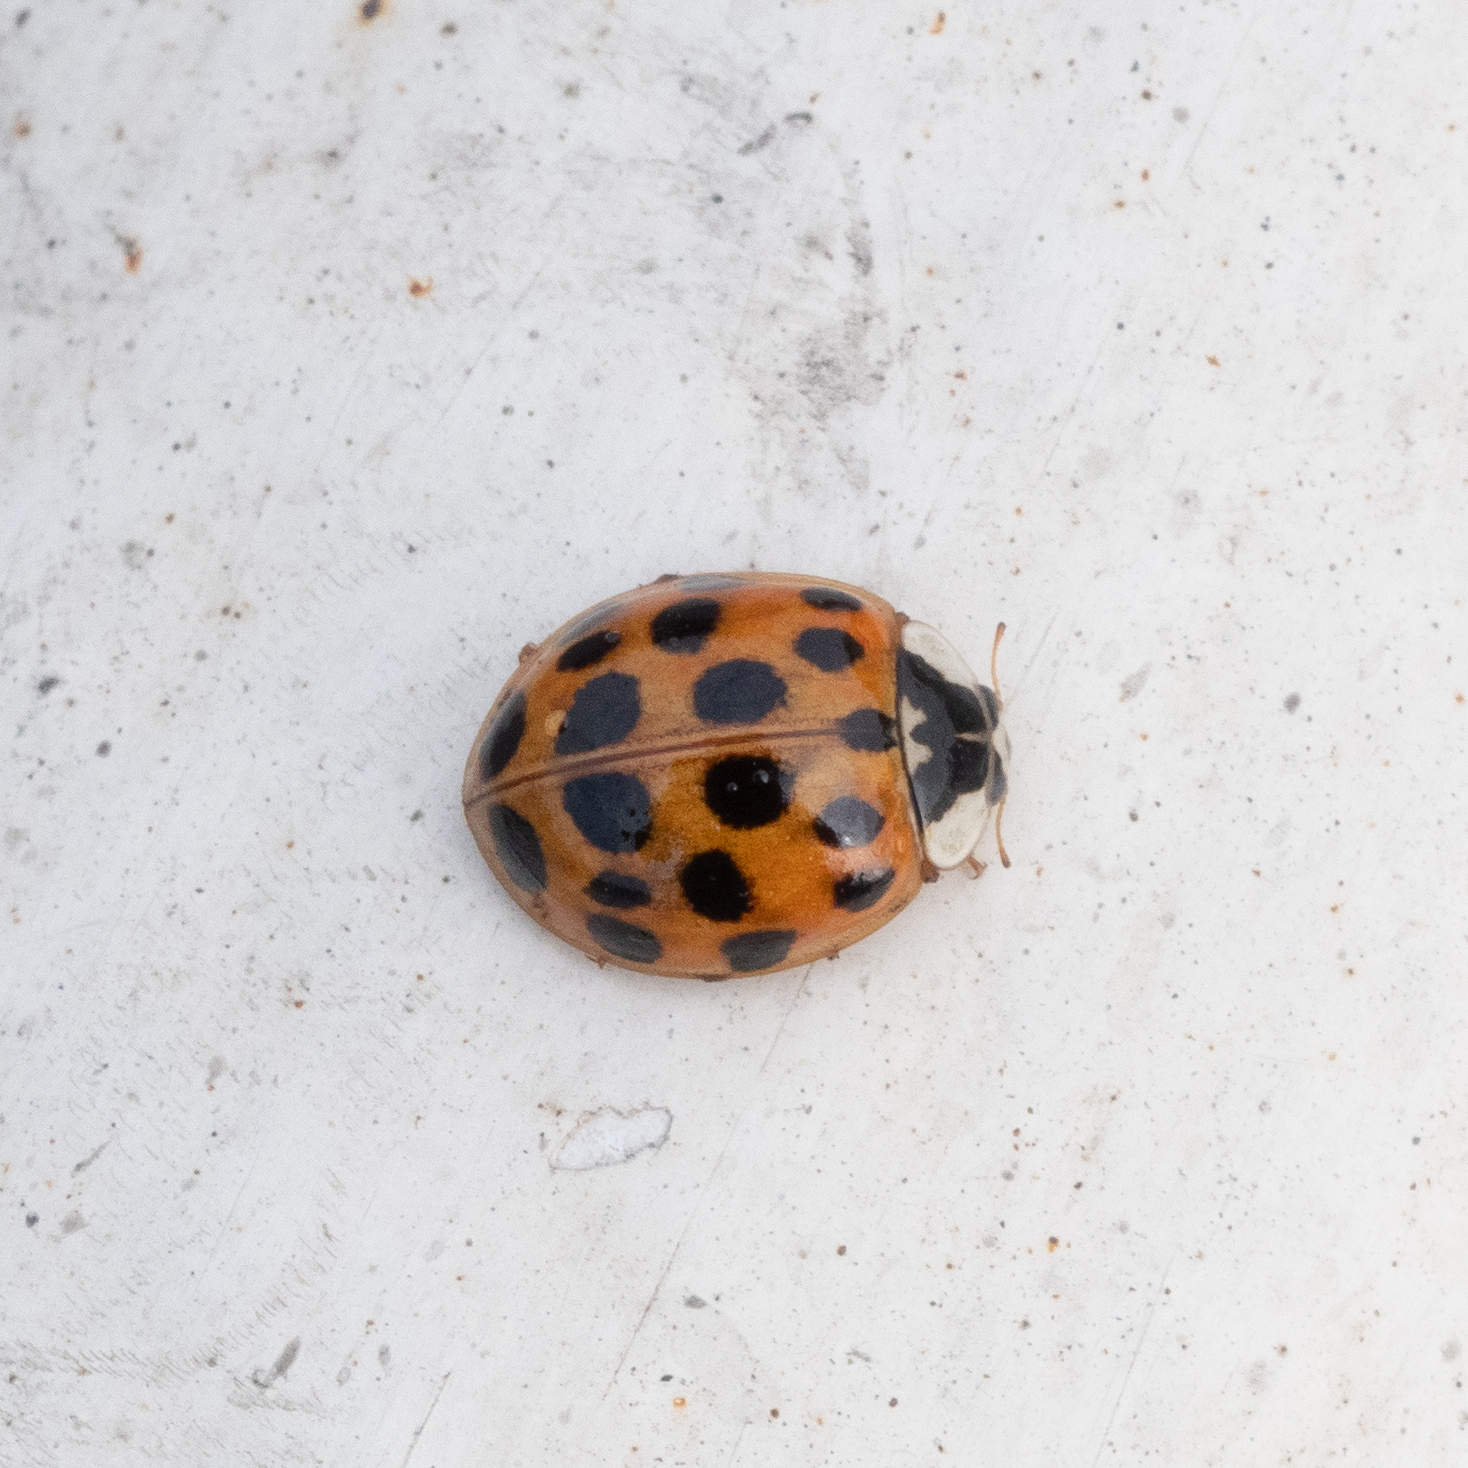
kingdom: Animalia
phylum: Arthropoda
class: Insecta
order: Coleoptera
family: Coccinellidae
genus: Harmonia
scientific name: Harmonia axyridis
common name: Harlequin ladybird
